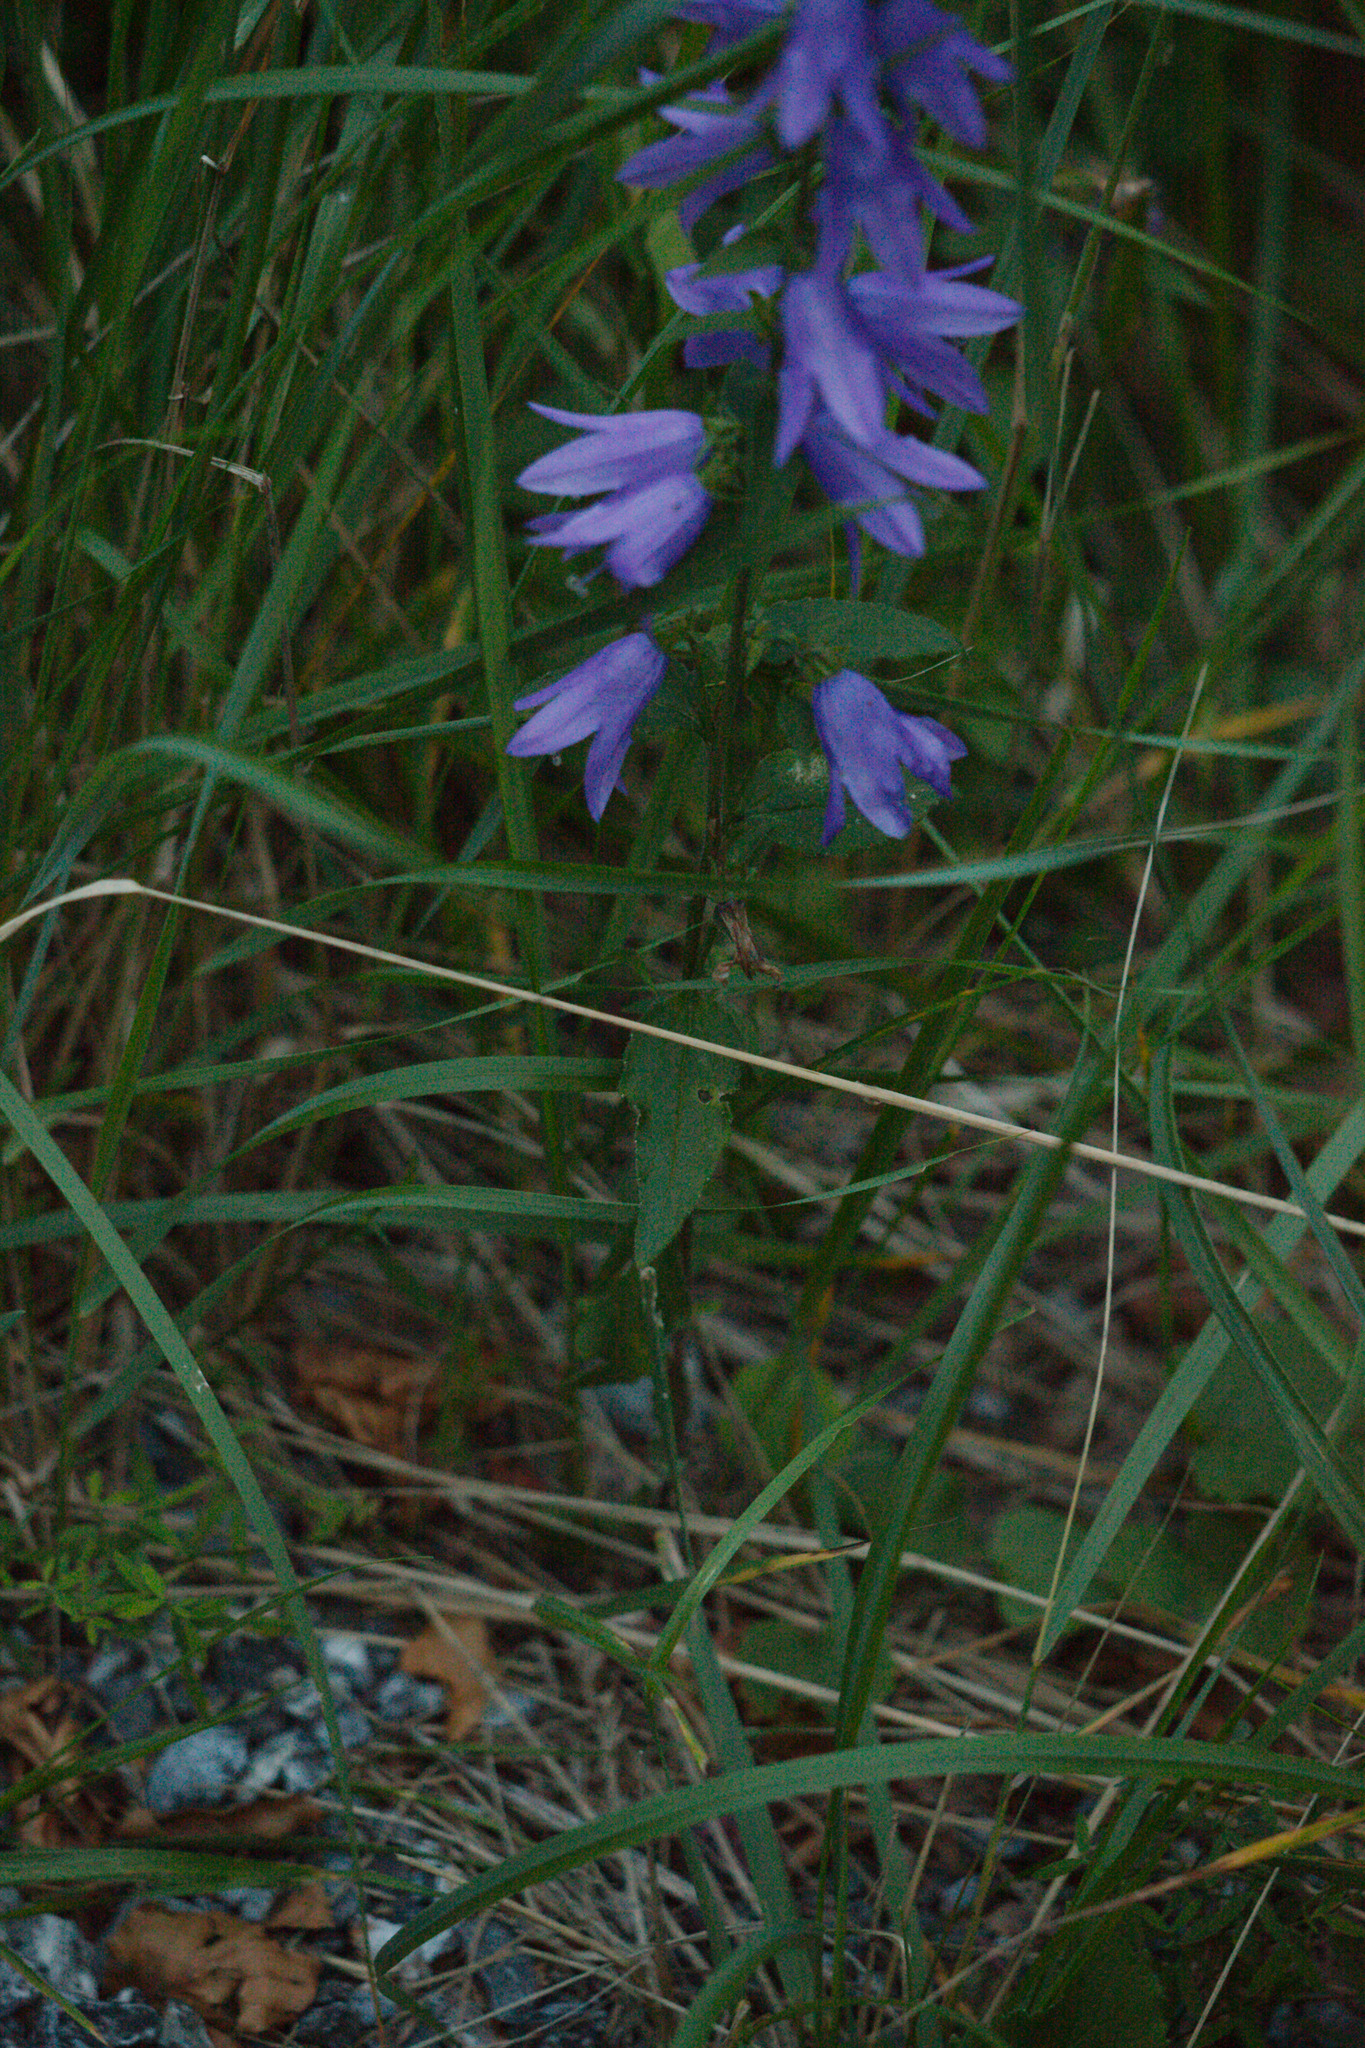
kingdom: Plantae
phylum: Tracheophyta
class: Magnoliopsida
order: Asterales
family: Campanulaceae
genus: Campanula
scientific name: Campanula rapunculoides
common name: Creeping bellflower
